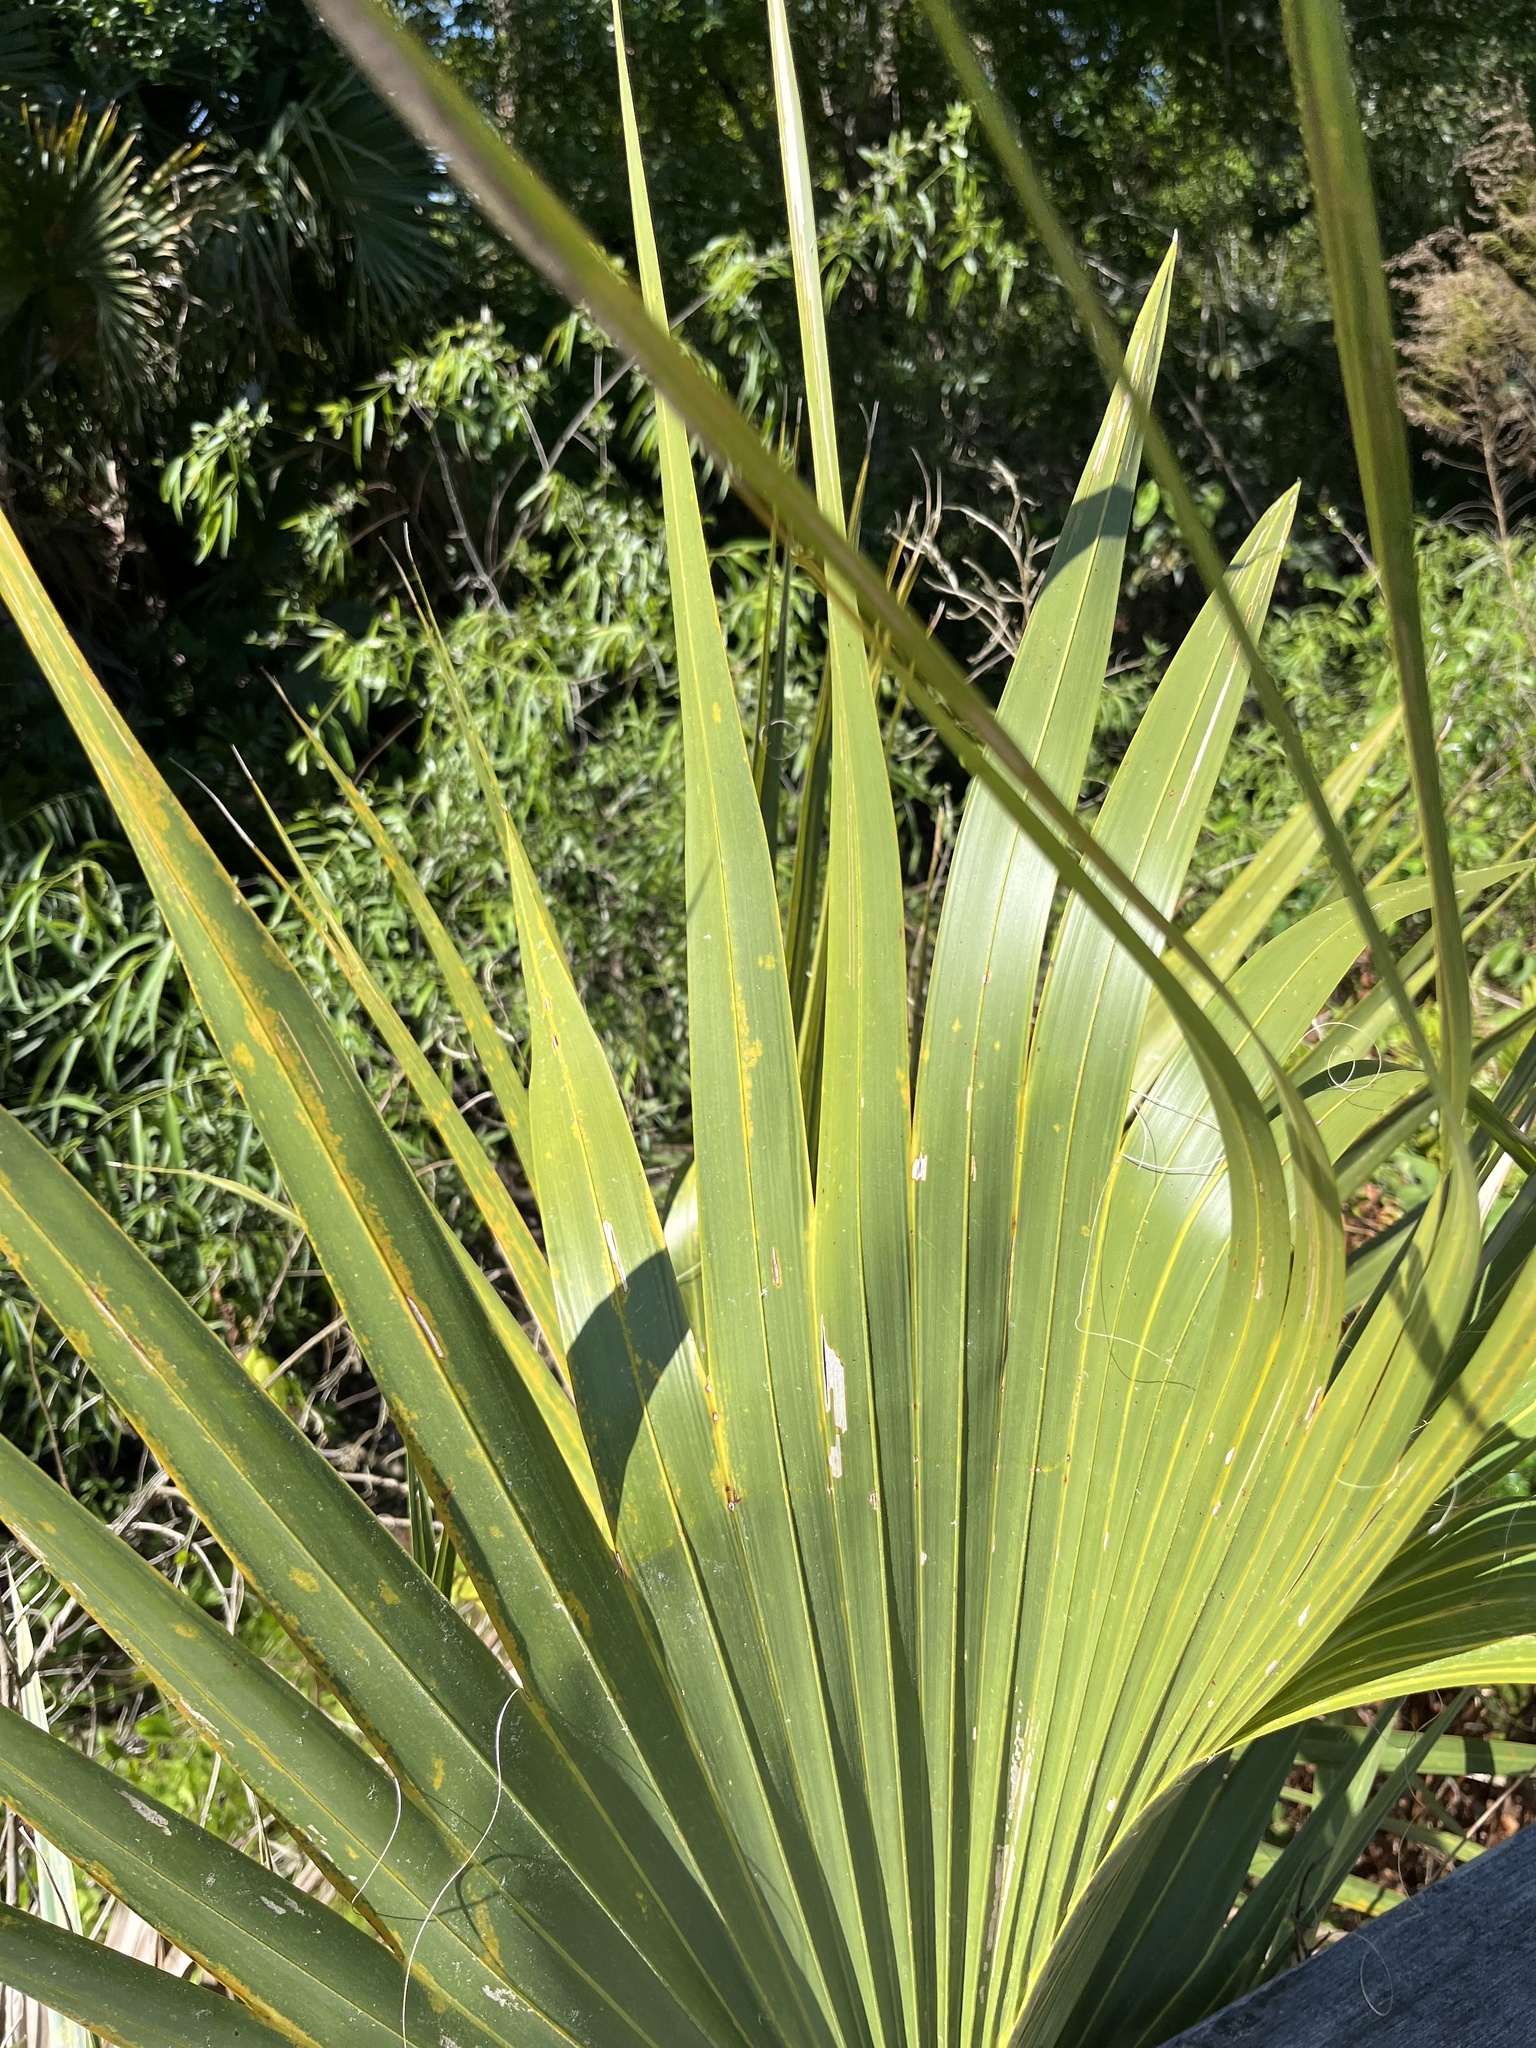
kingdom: Plantae
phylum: Tracheophyta
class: Liliopsida
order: Arecales
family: Arecaceae
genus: Serenoa
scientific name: Serenoa repens
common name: Saw-palmetto
